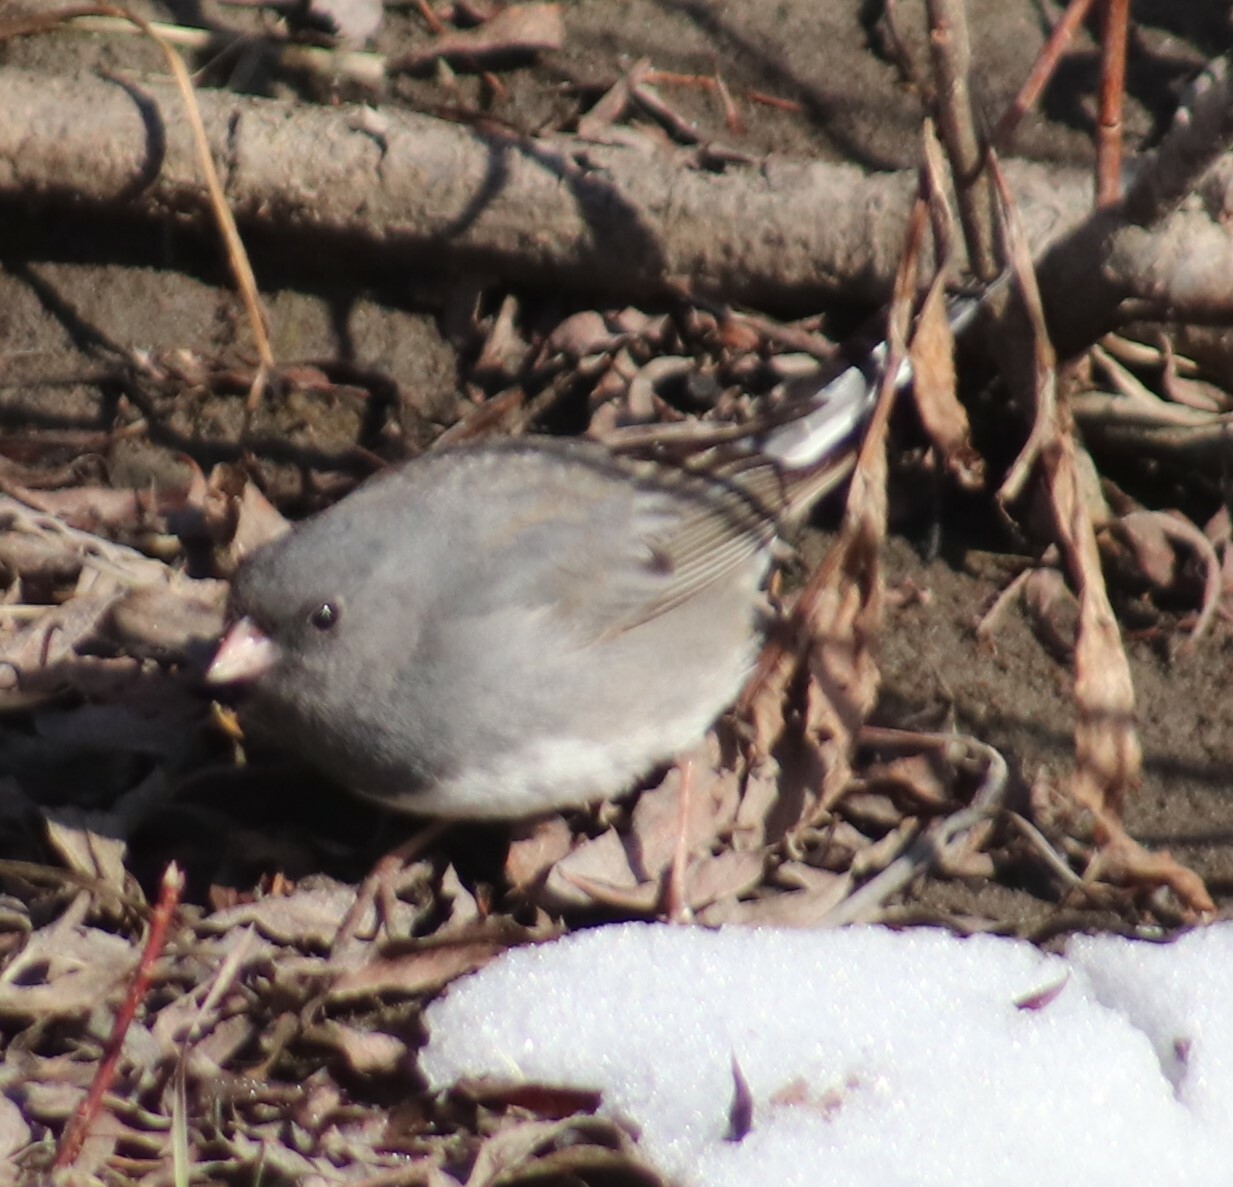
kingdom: Animalia
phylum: Chordata
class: Aves
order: Passeriformes
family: Passerellidae
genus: Junco
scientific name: Junco hyemalis
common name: Dark-eyed junco
